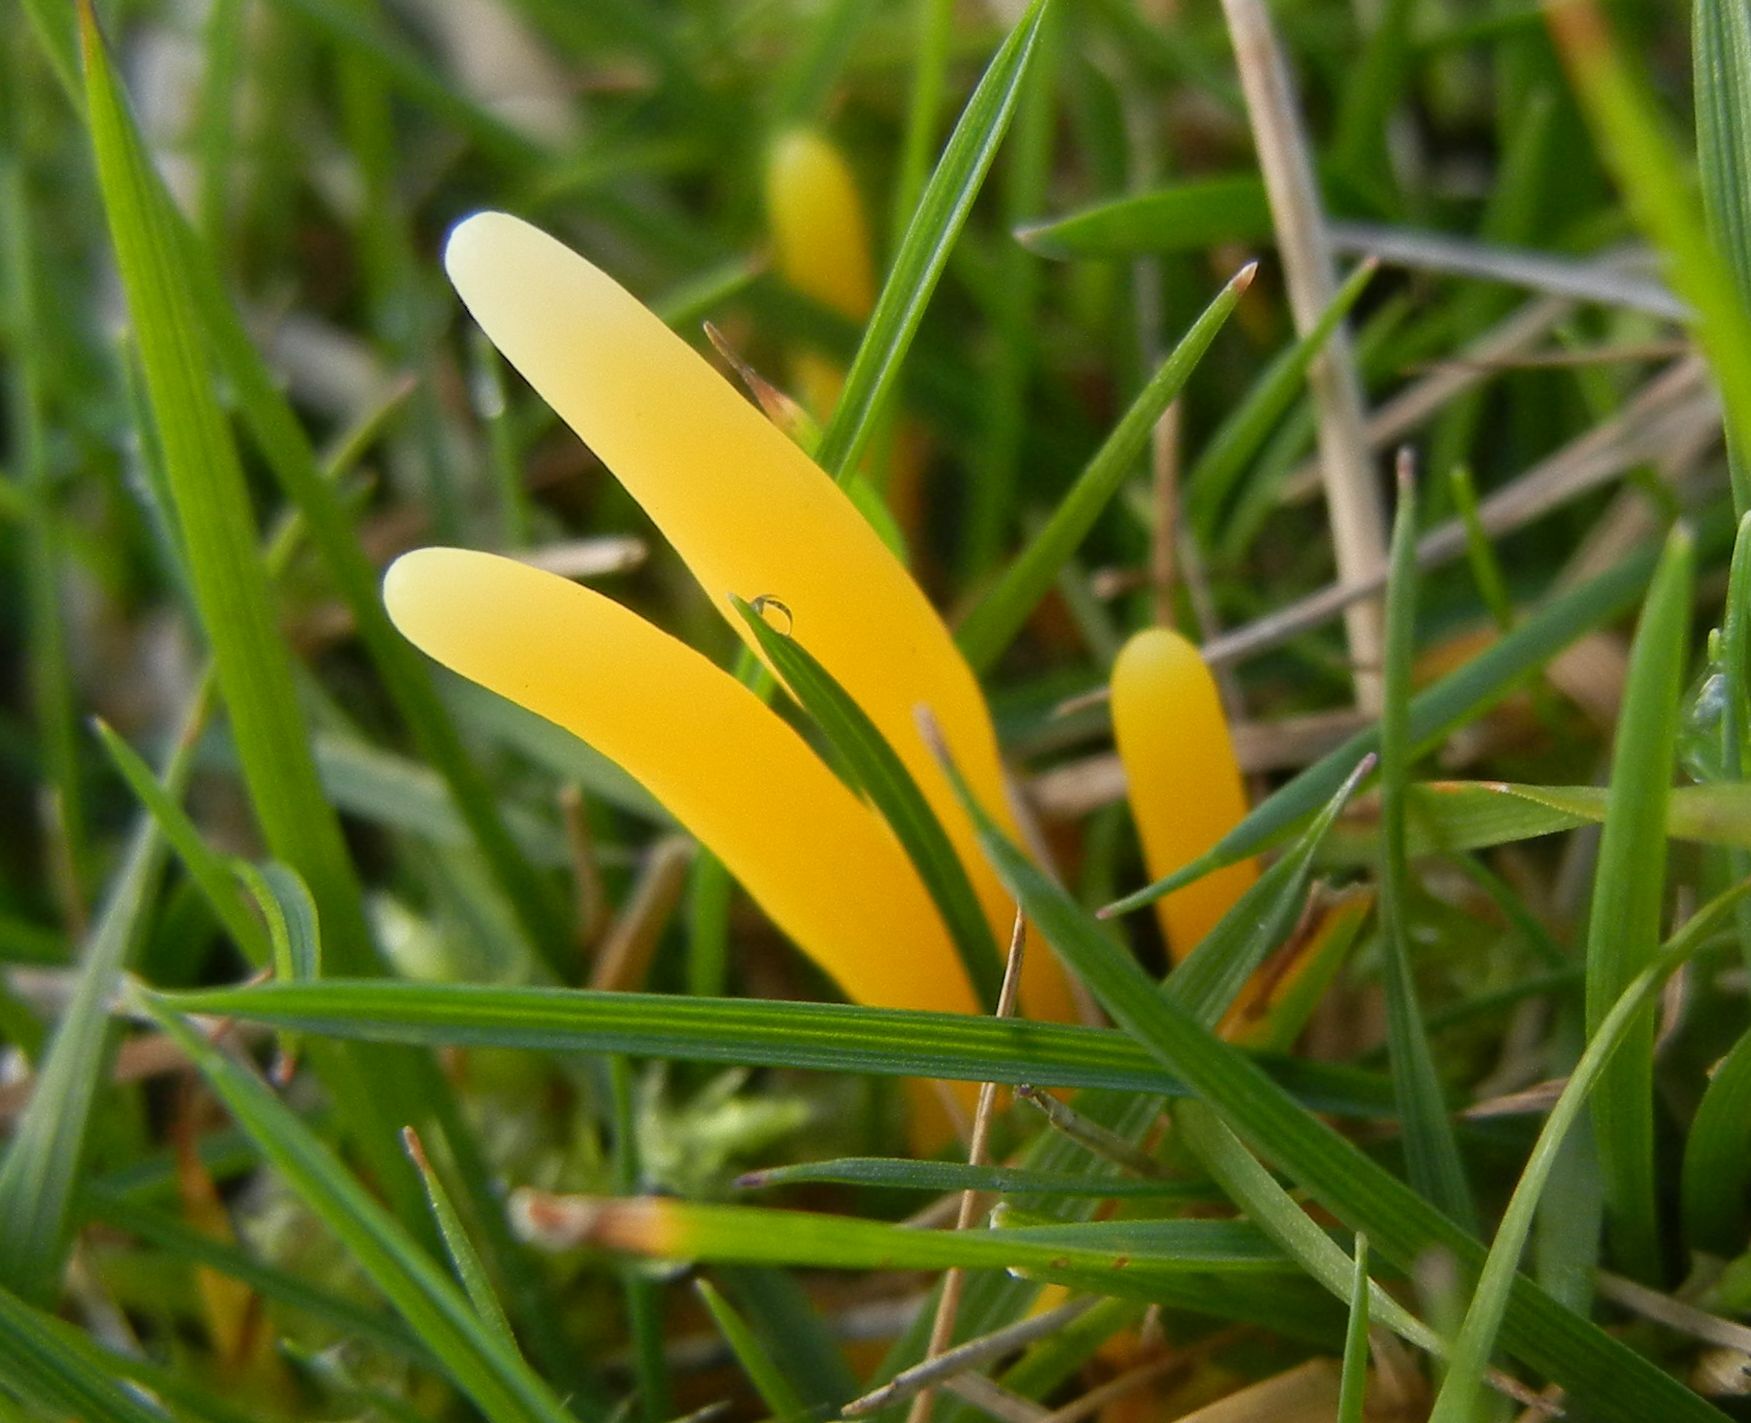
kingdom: Fungi
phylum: Basidiomycota
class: Agaricomycetes
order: Agaricales
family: Clavariaceae
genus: Clavulinopsis
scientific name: Clavulinopsis helvola
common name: Yellow club
